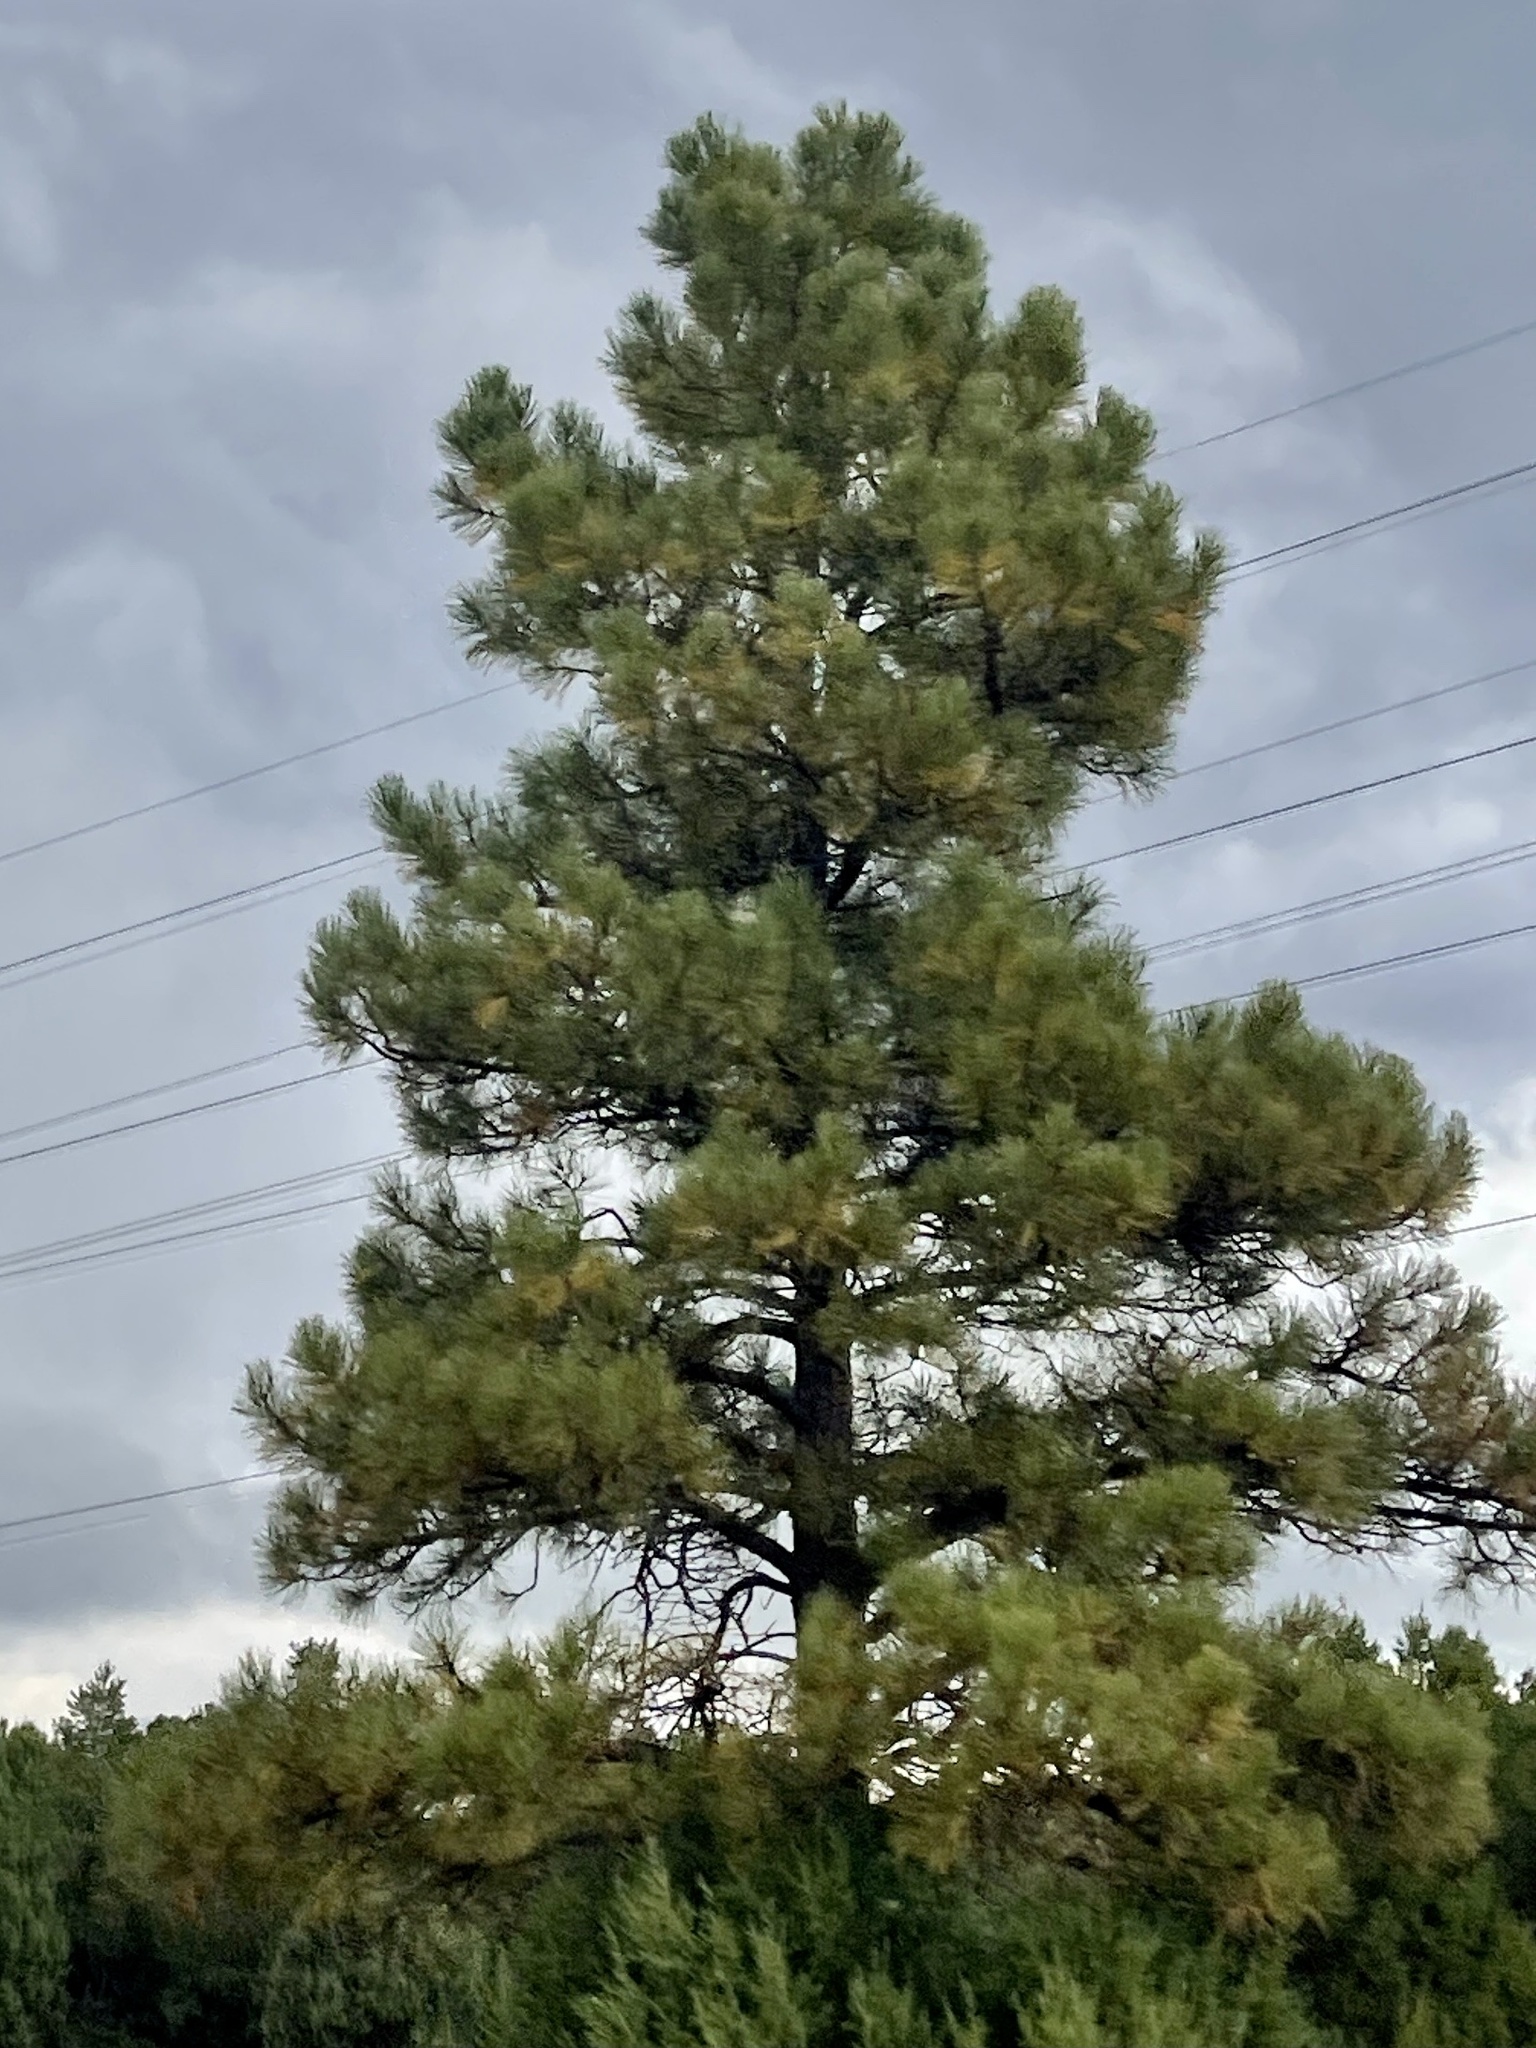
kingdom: Plantae
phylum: Tracheophyta
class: Pinopsida
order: Pinales
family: Pinaceae
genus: Pinus
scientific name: Pinus ponderosa
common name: Western yellow-pine
